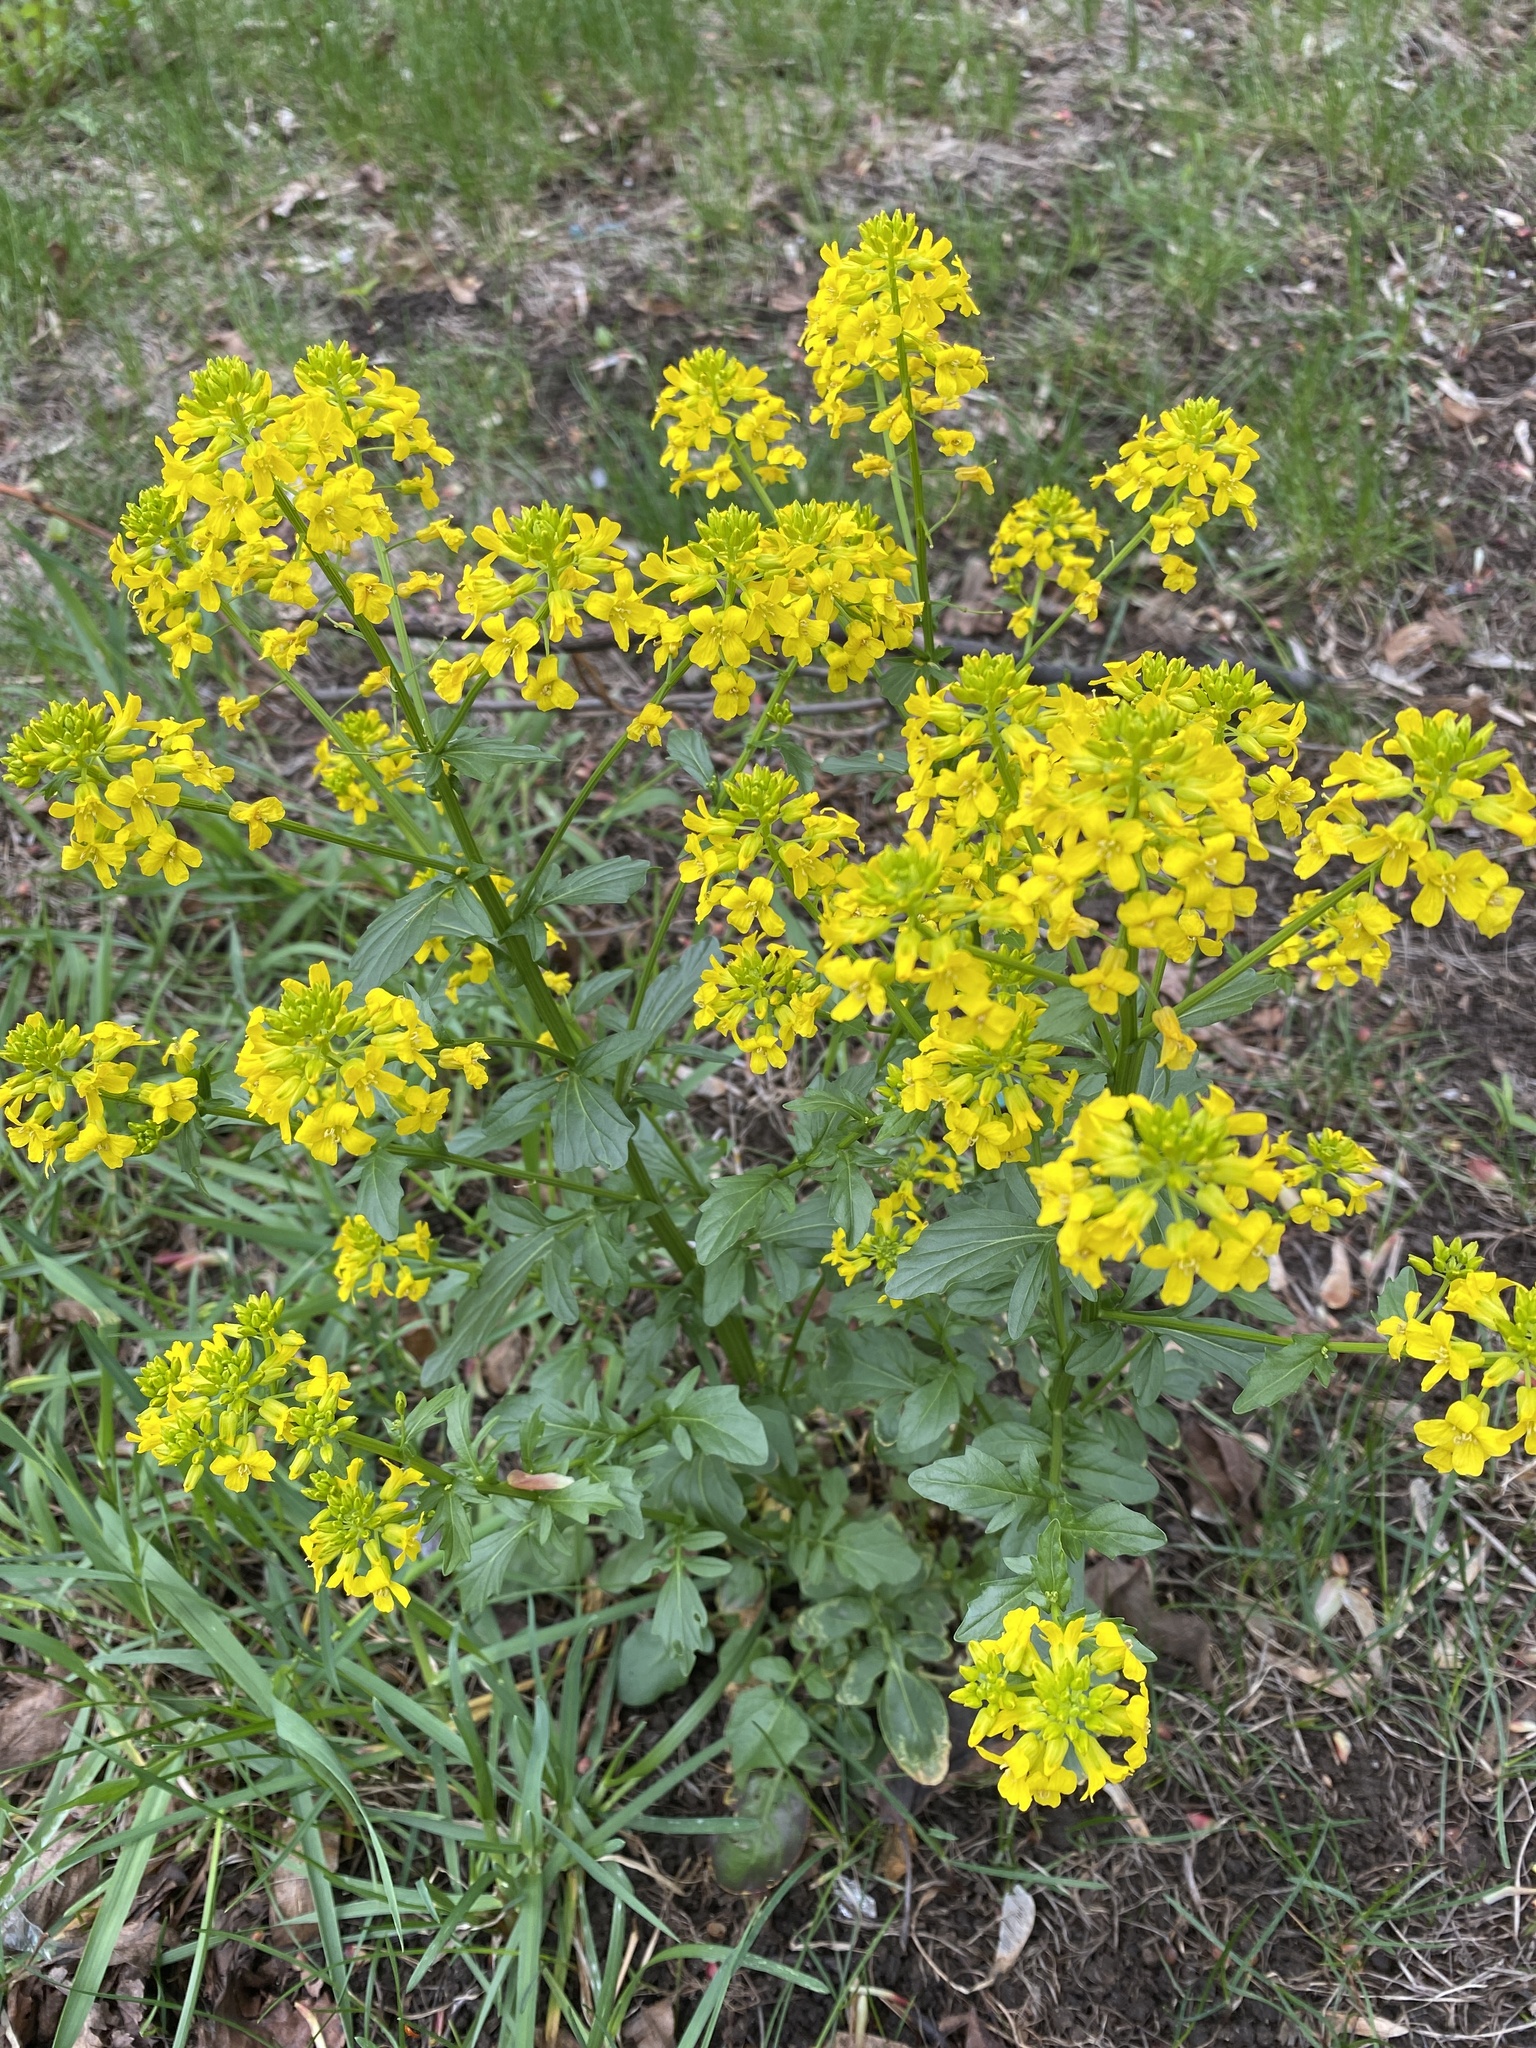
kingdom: Plantae
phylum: Tracheophyta
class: Magnoliopsida
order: Brassicales
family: Brassicaceae
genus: Barbarea
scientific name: Barbarea vulgaris
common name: Cressy-greens
